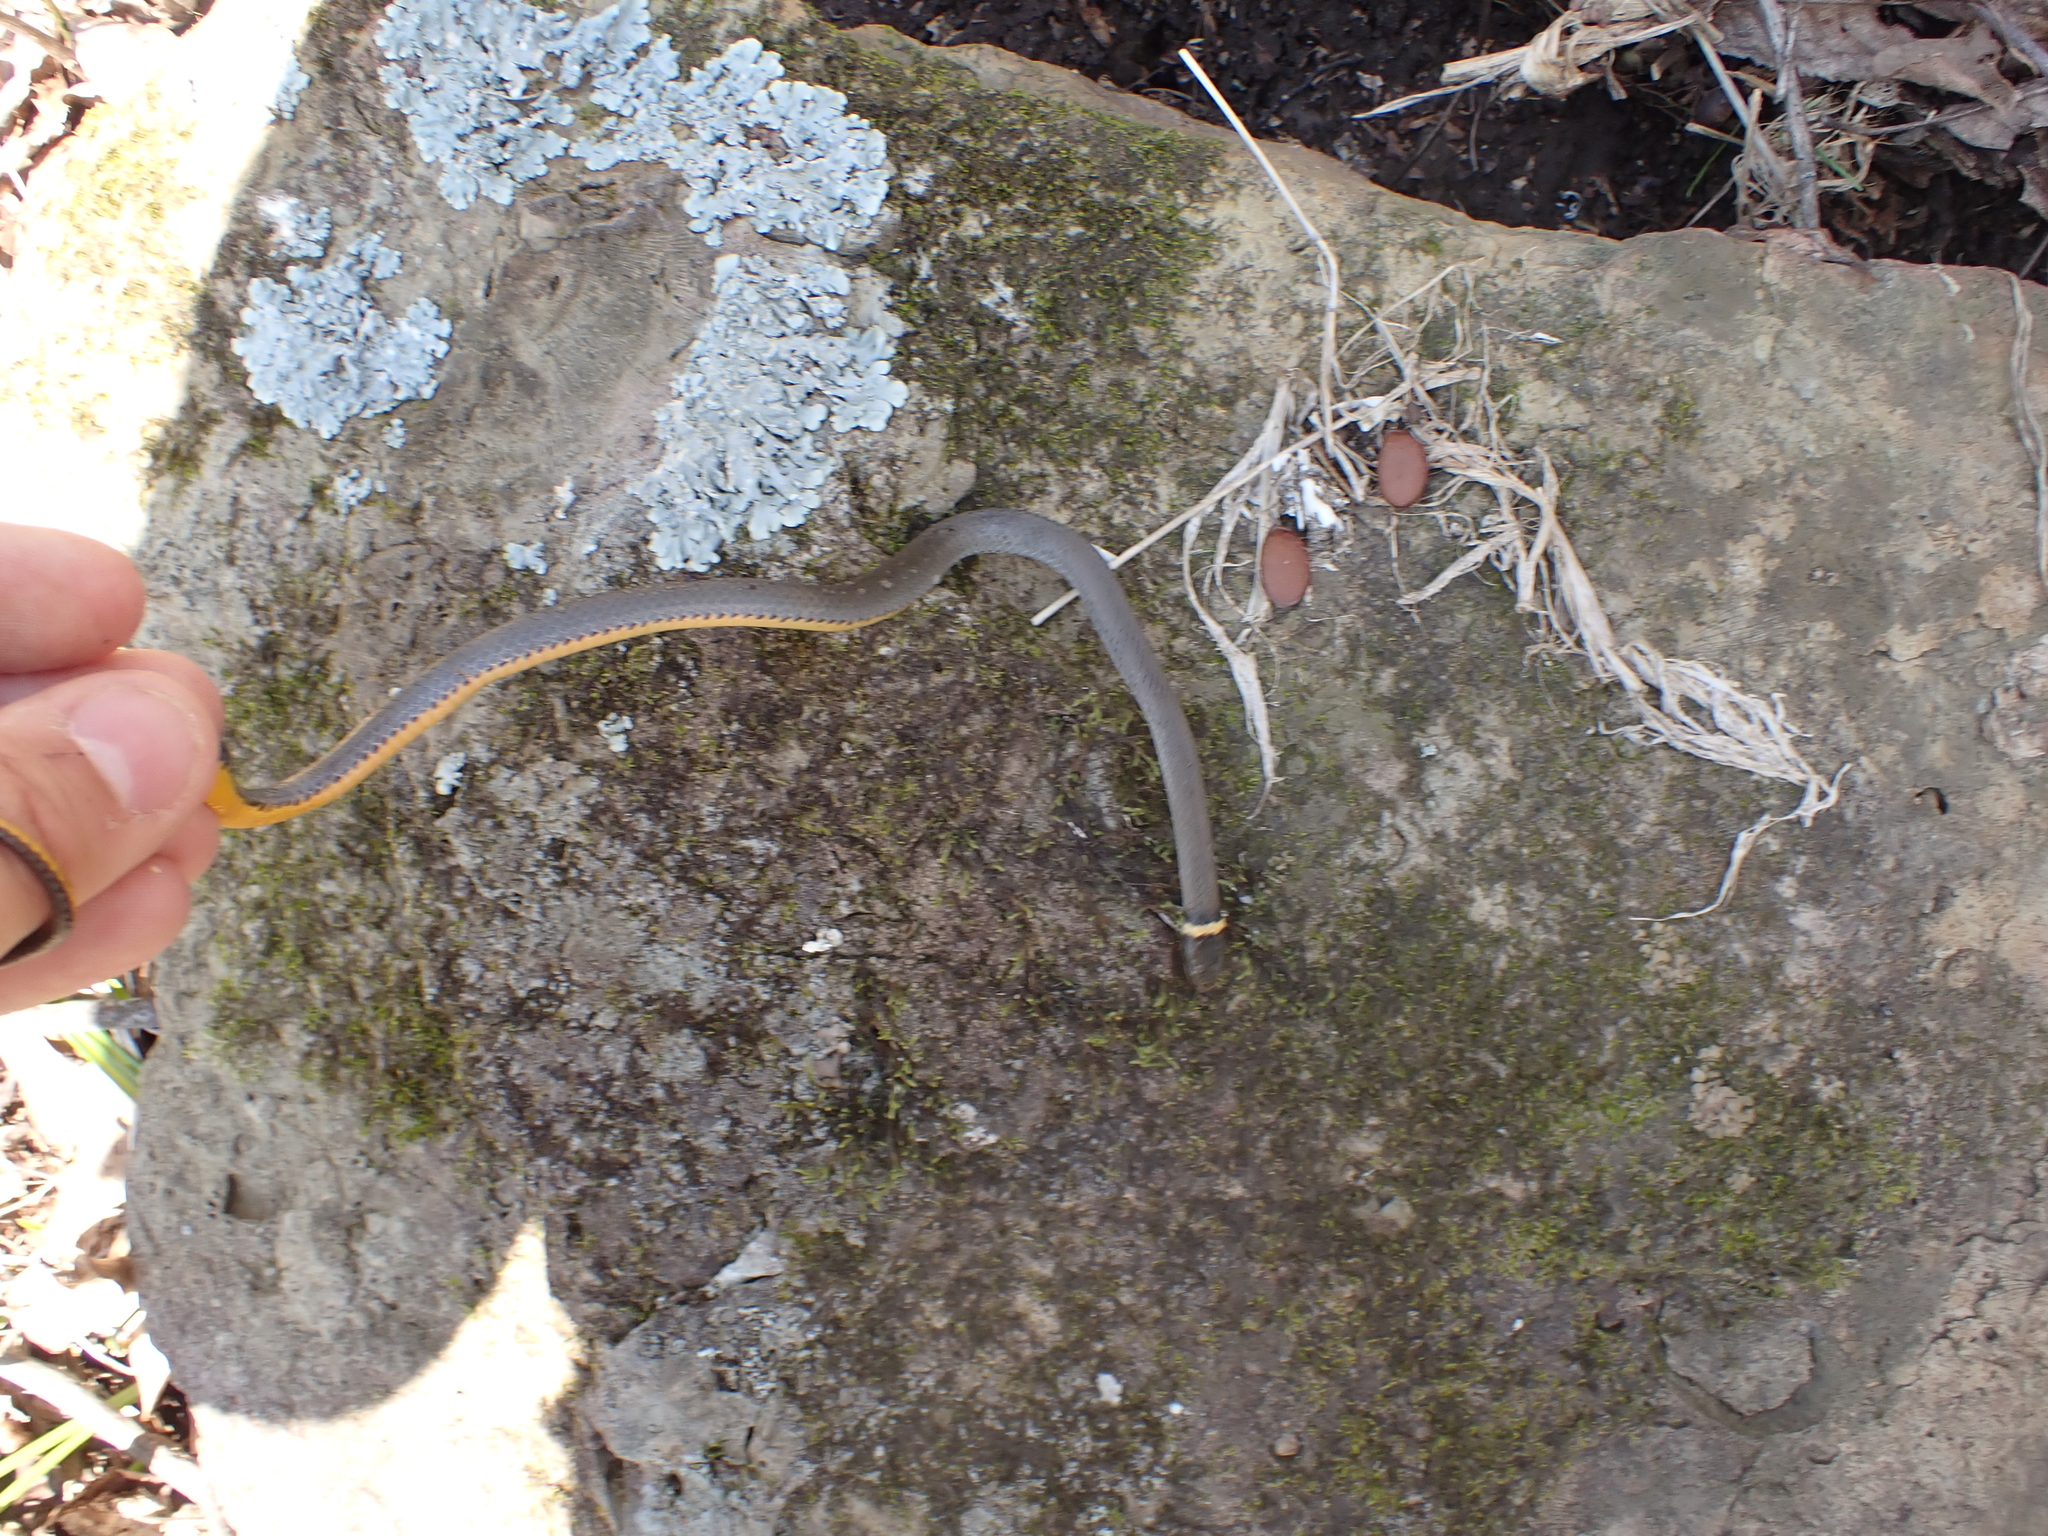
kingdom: Animalia
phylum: Chordata
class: Squamata
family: Colubridae
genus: Diadophis
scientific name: Diadophis punctatus
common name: Ringneck snake
